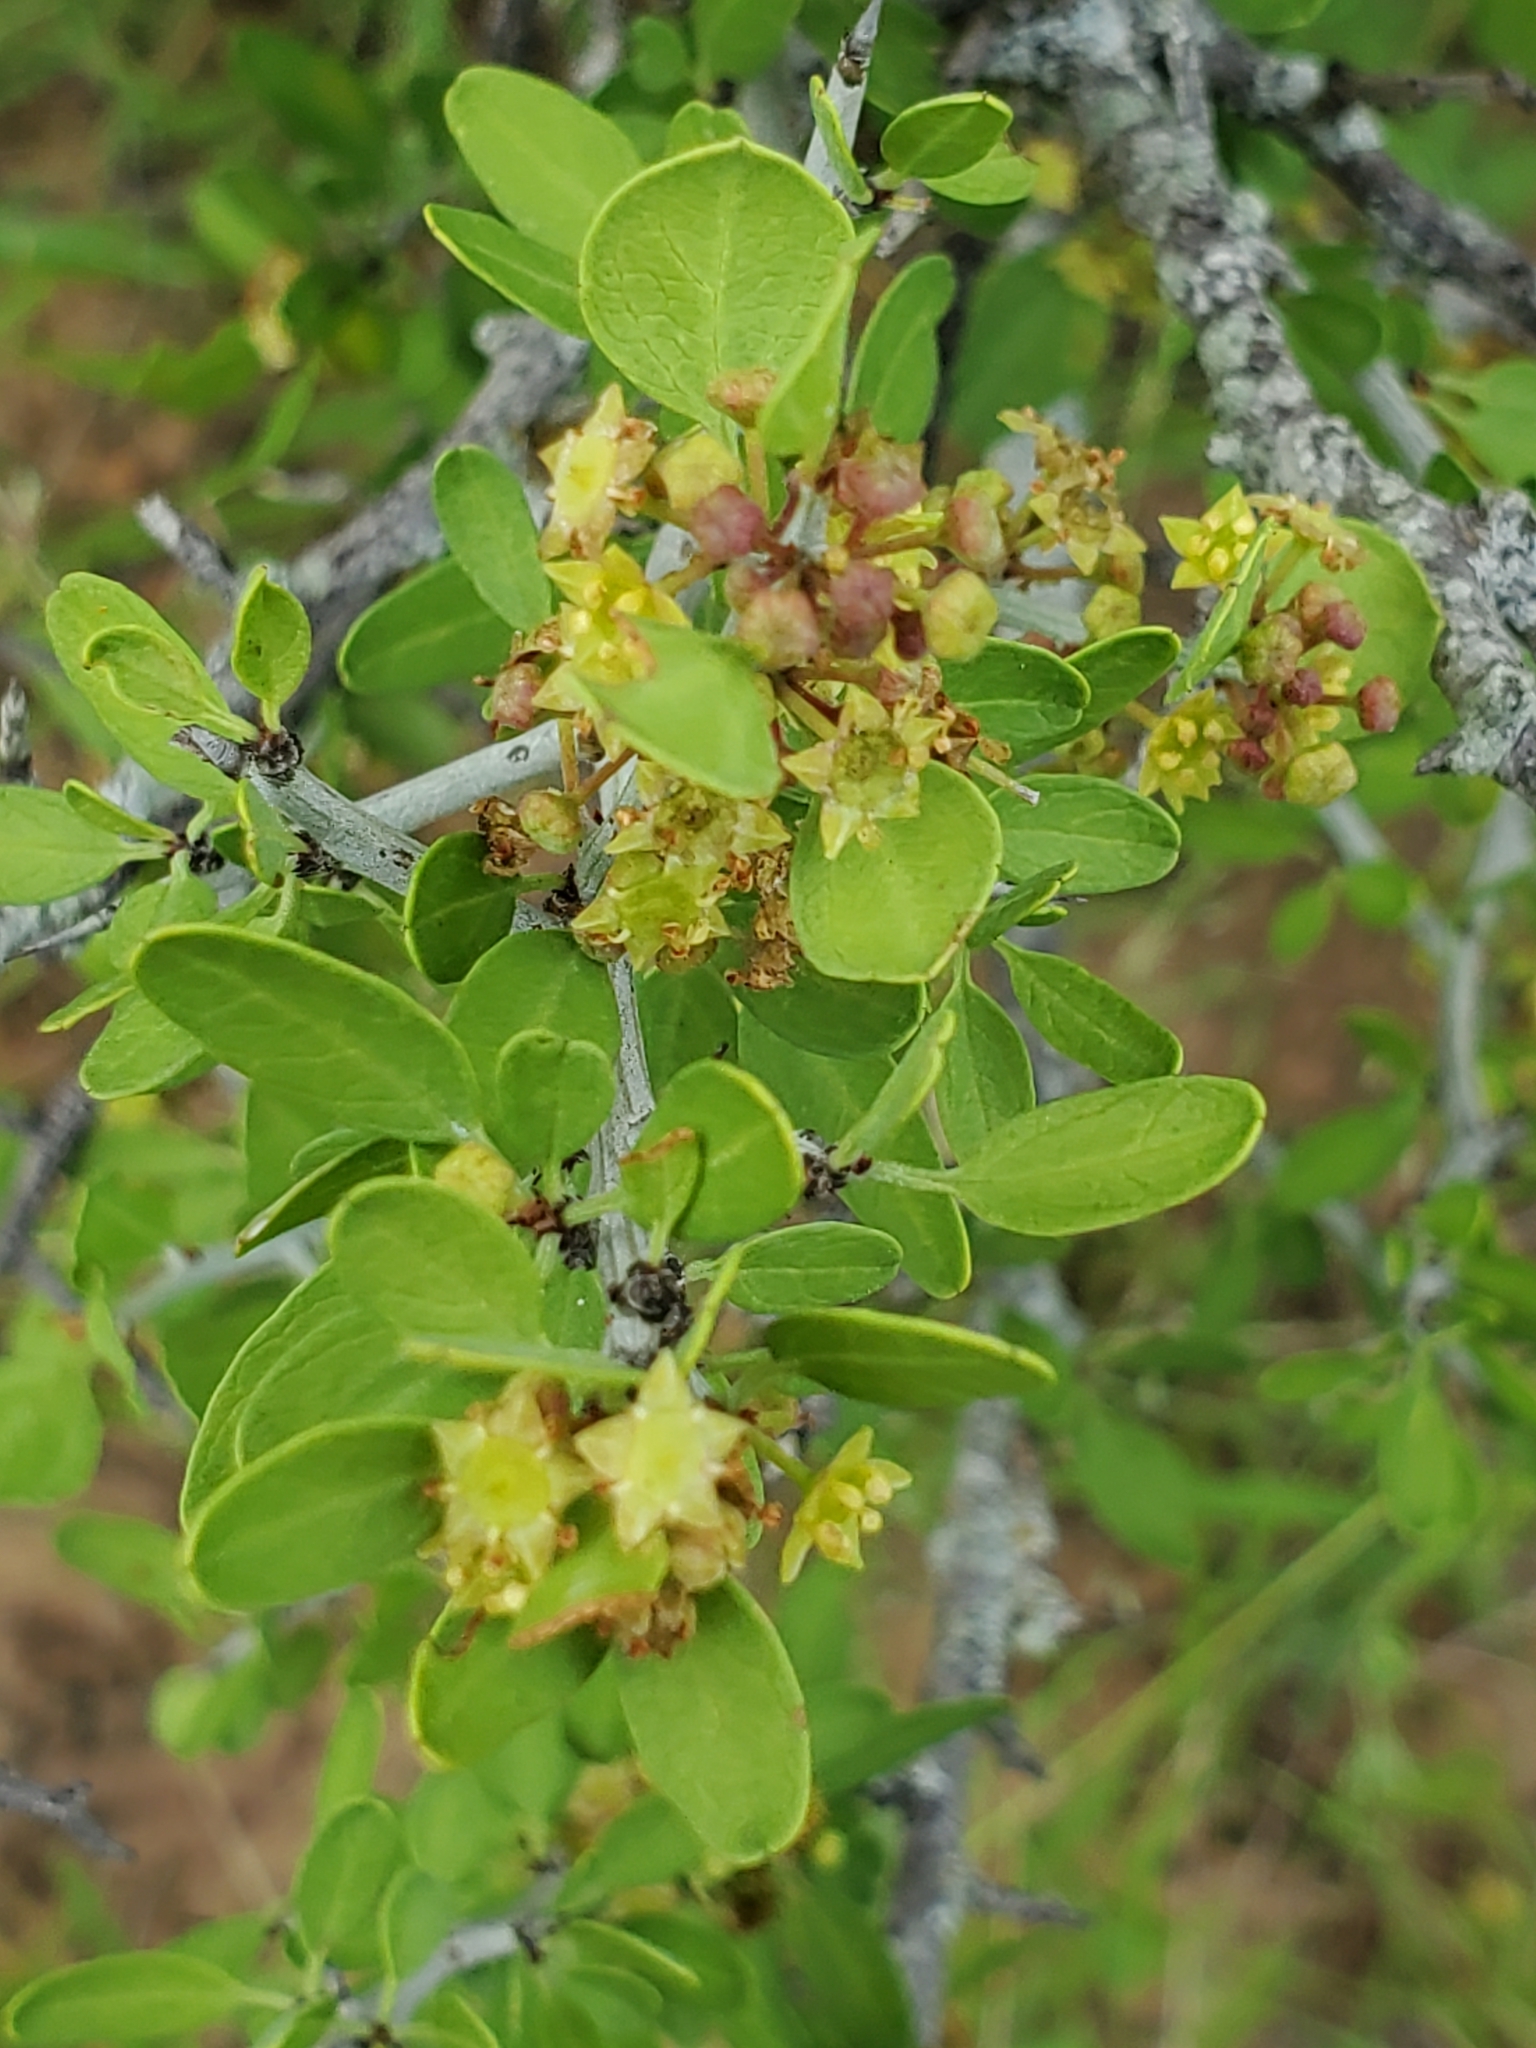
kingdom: Plantae
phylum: Tracheophyta
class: Magnoliopsida
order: Rosales
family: Rhamnaceae
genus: Sarcomphalus
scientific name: Sarcomphalus obtusifolius
